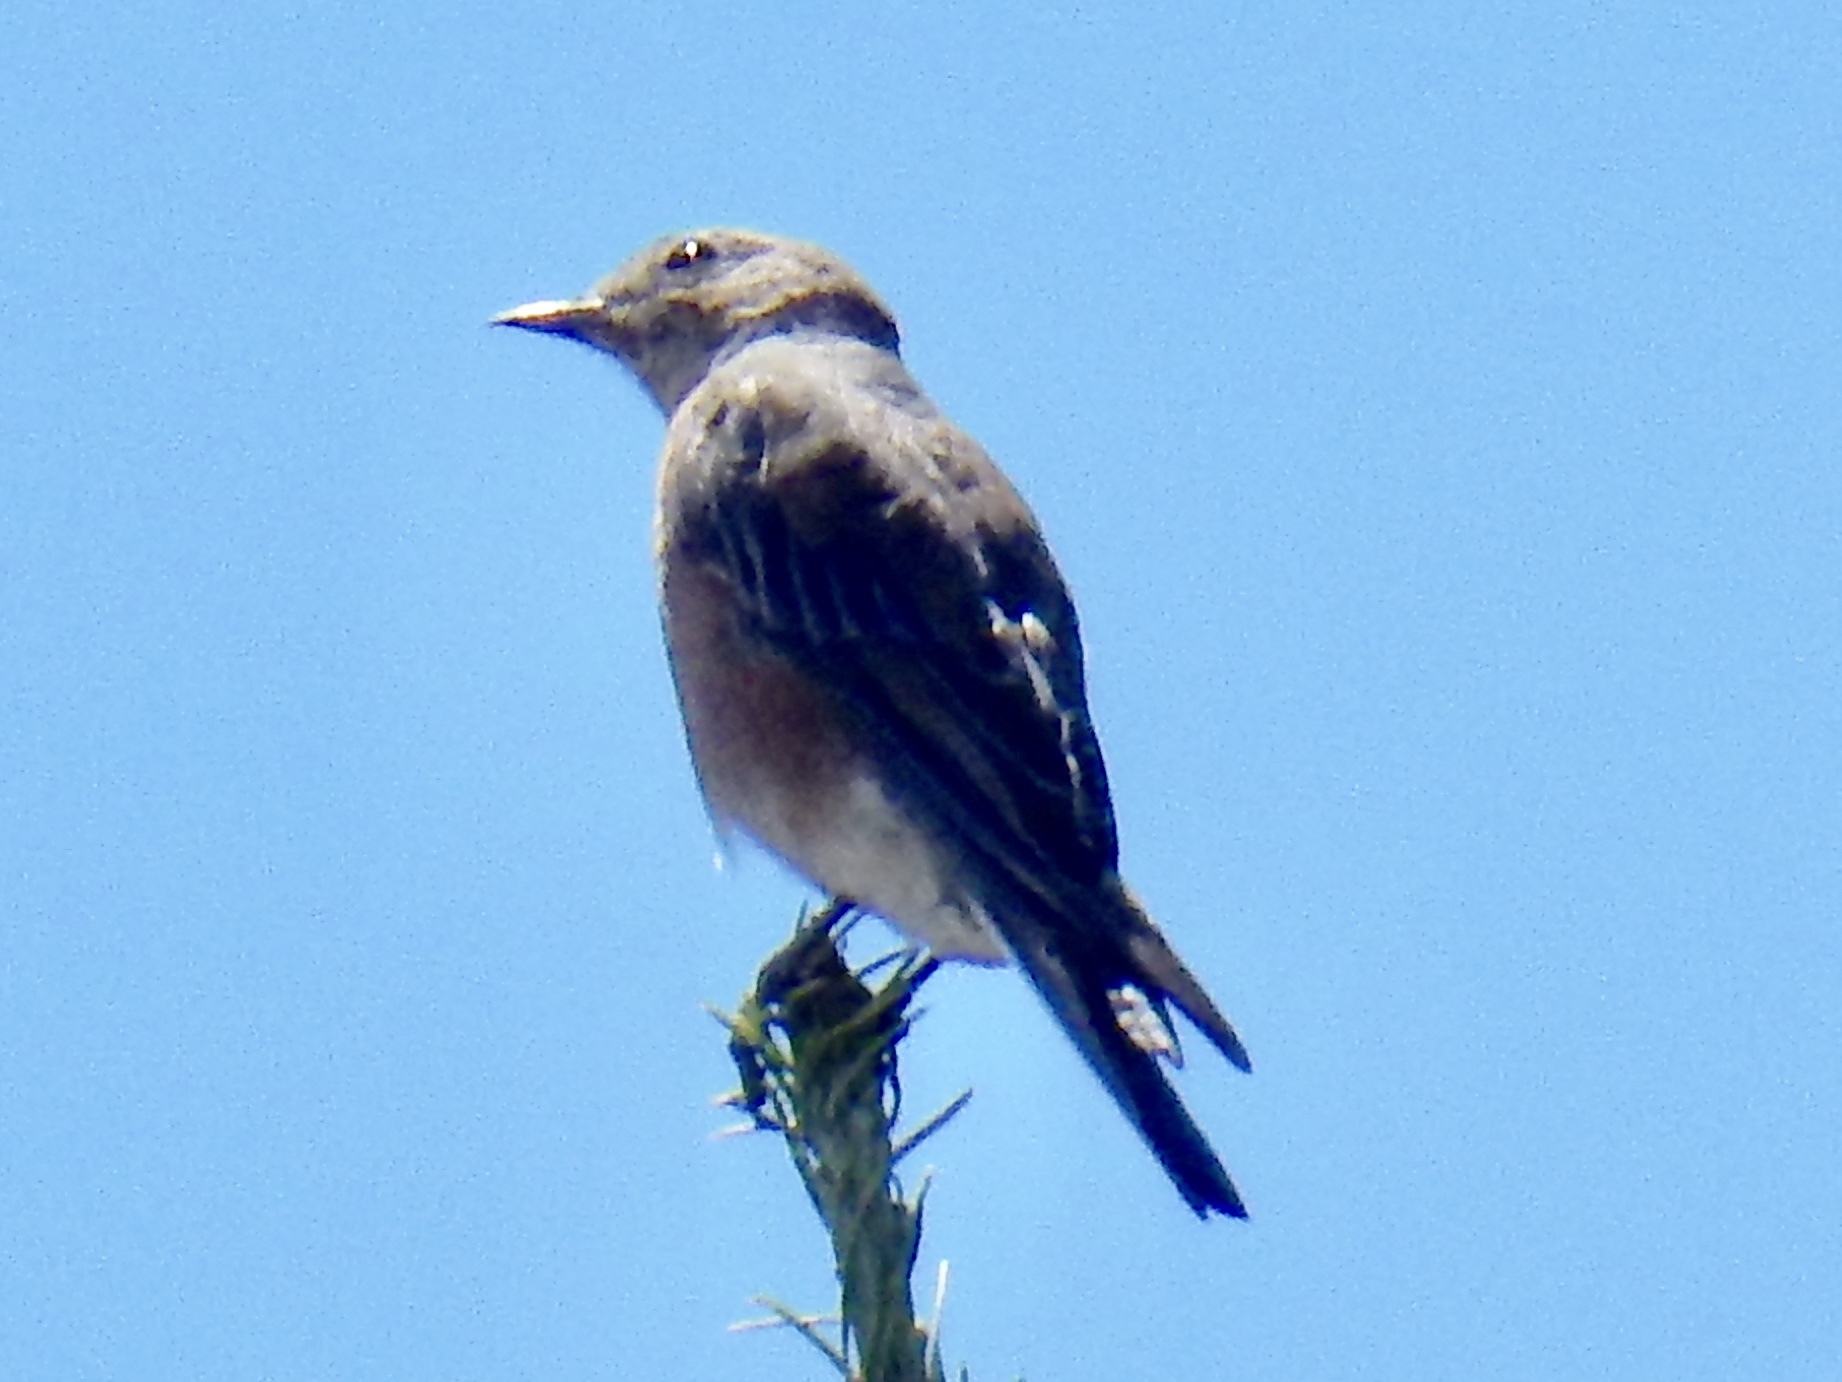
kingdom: Animalia
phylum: Chordata
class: Aves
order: Passeriformes
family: Turdidae
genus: Sialia
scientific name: Sialia mexicana
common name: Western bluebird
